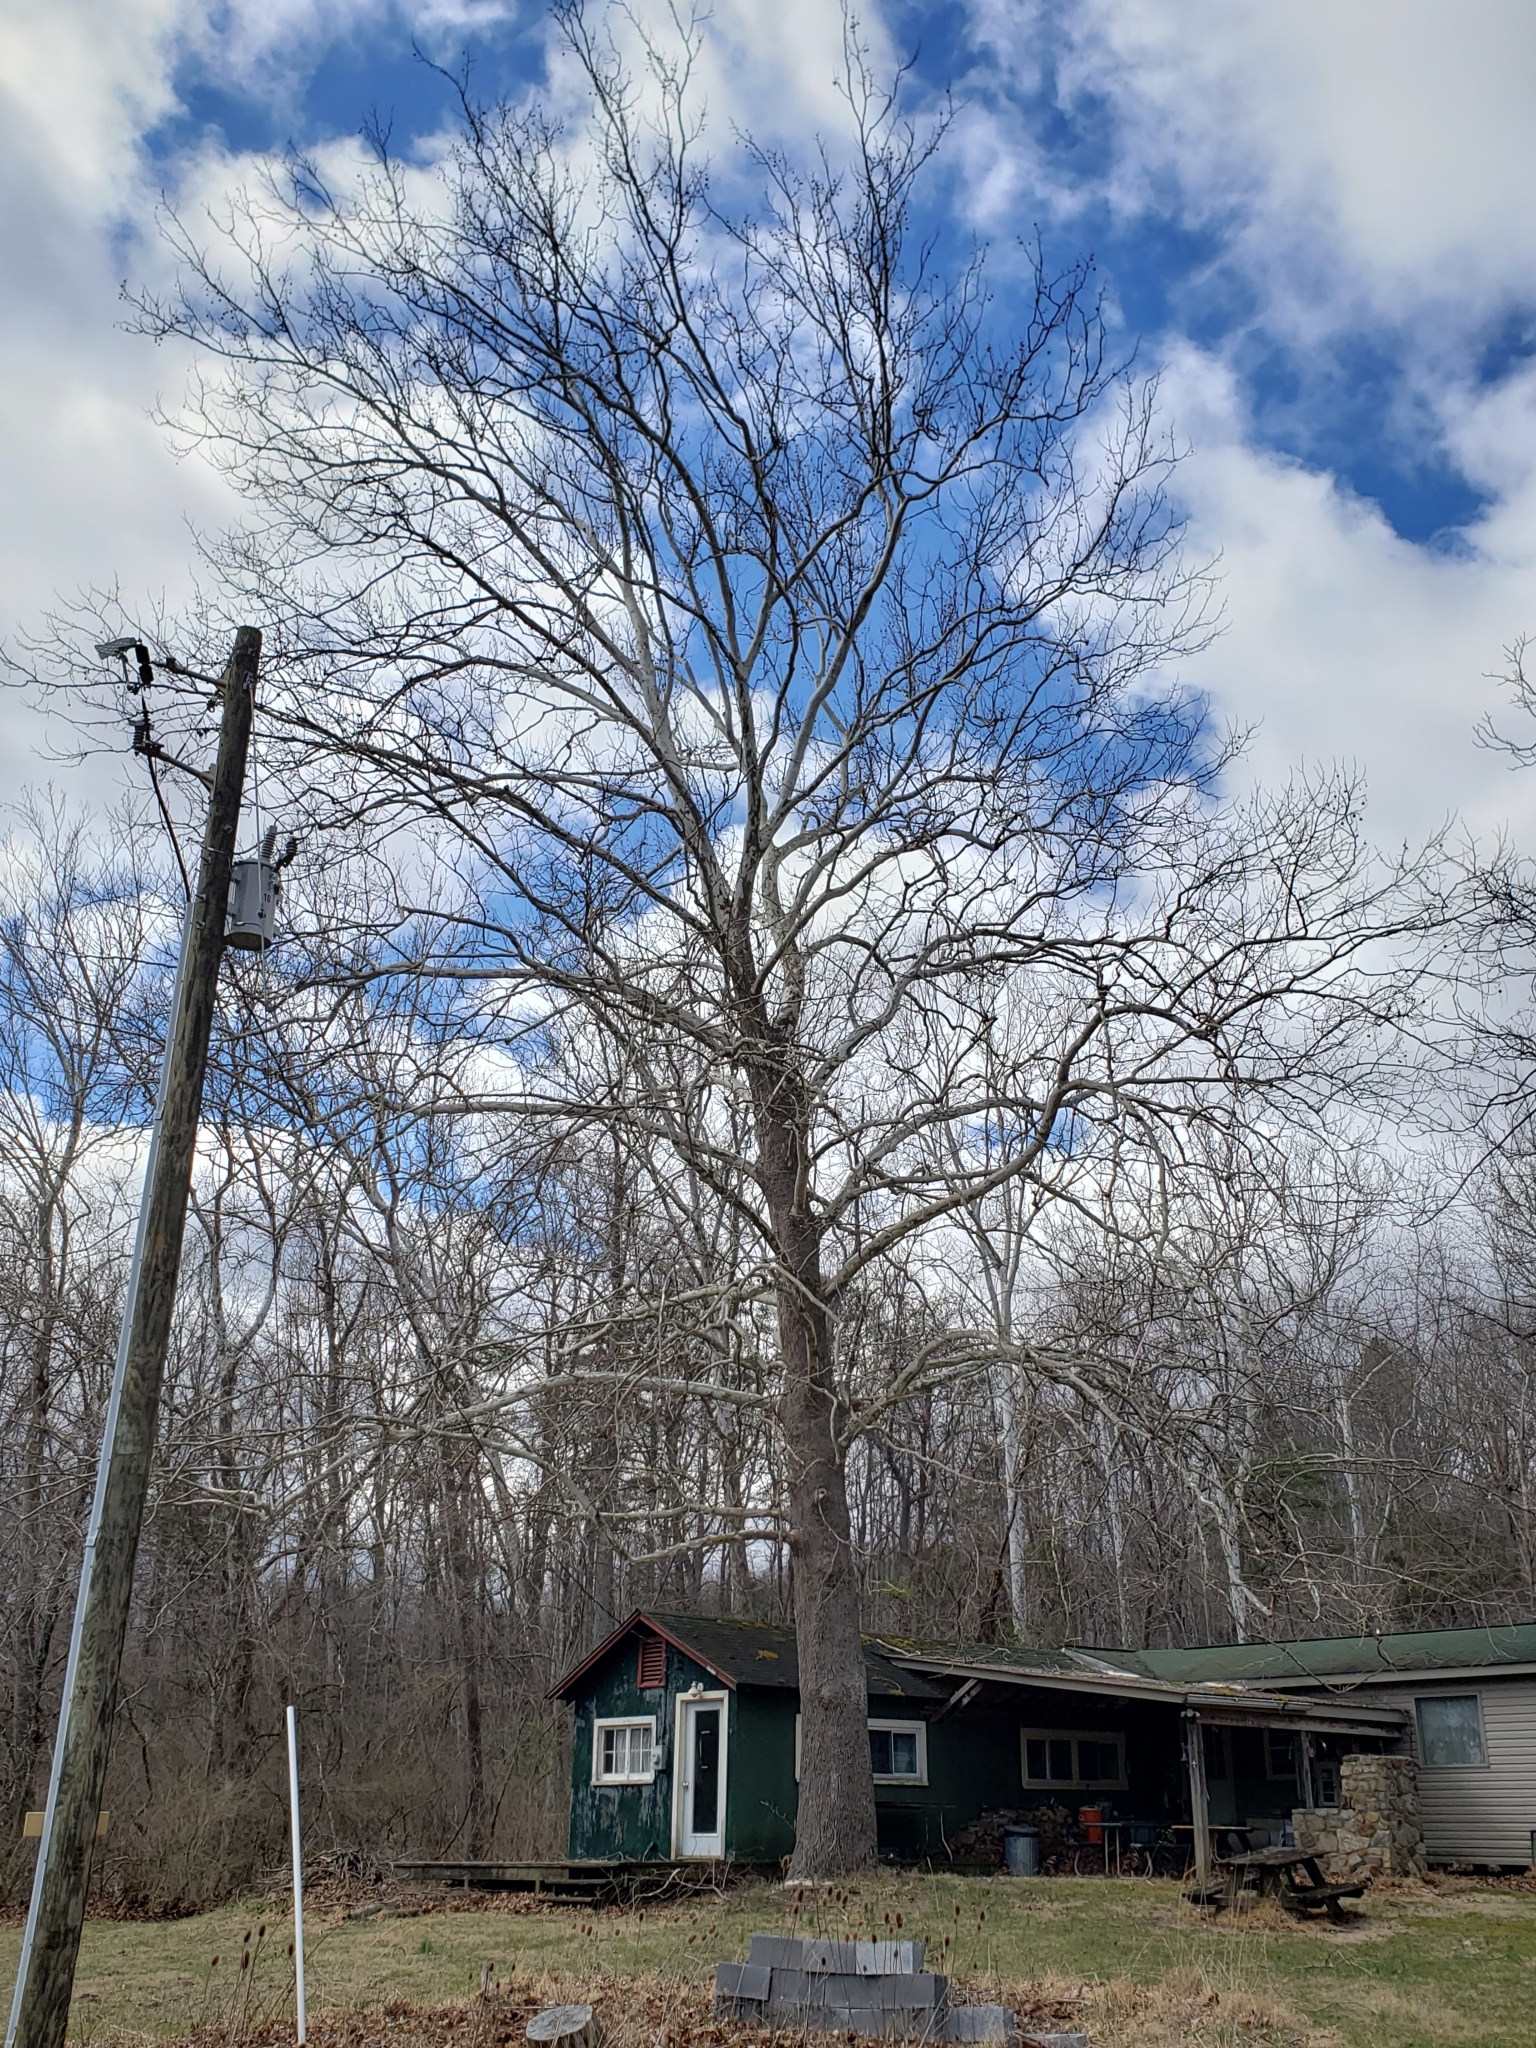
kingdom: Plantae
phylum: Tracheophyta
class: Magnoliopsida
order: Proteales
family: Platanaceae
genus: Platanus
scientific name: Platanus occidentalis
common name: American sycamore
